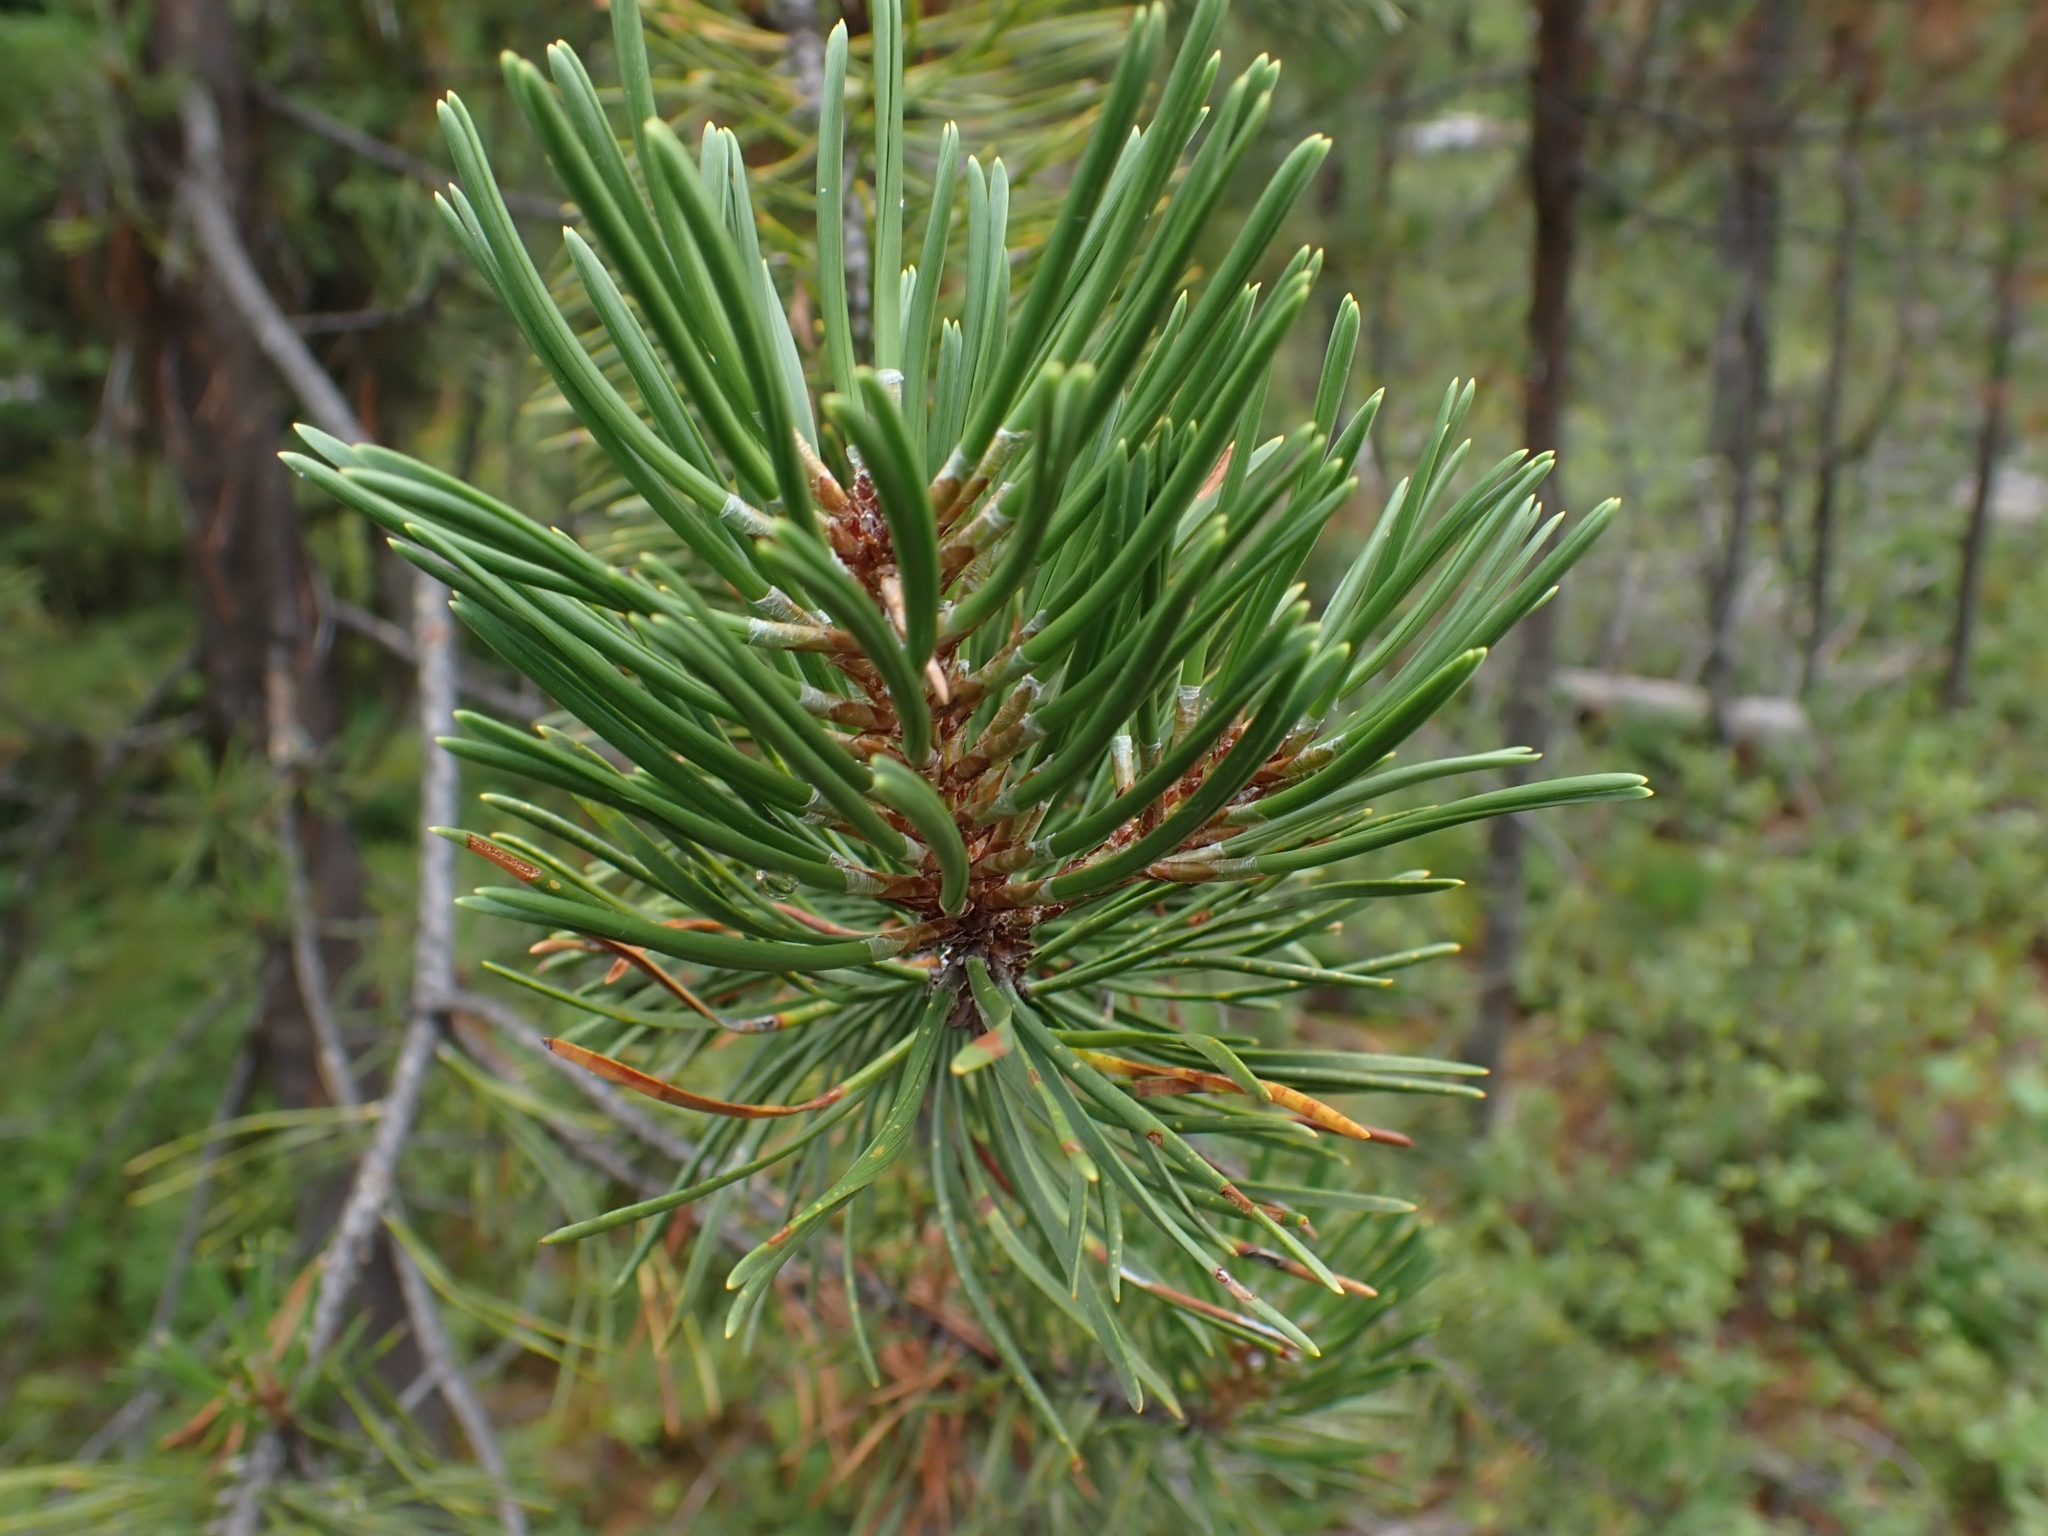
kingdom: Plantae
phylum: Tracheophyta
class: Pinopsida
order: Pinales
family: Pinaceae
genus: Pinus
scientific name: Pinus contorta
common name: Lodgepole pine
